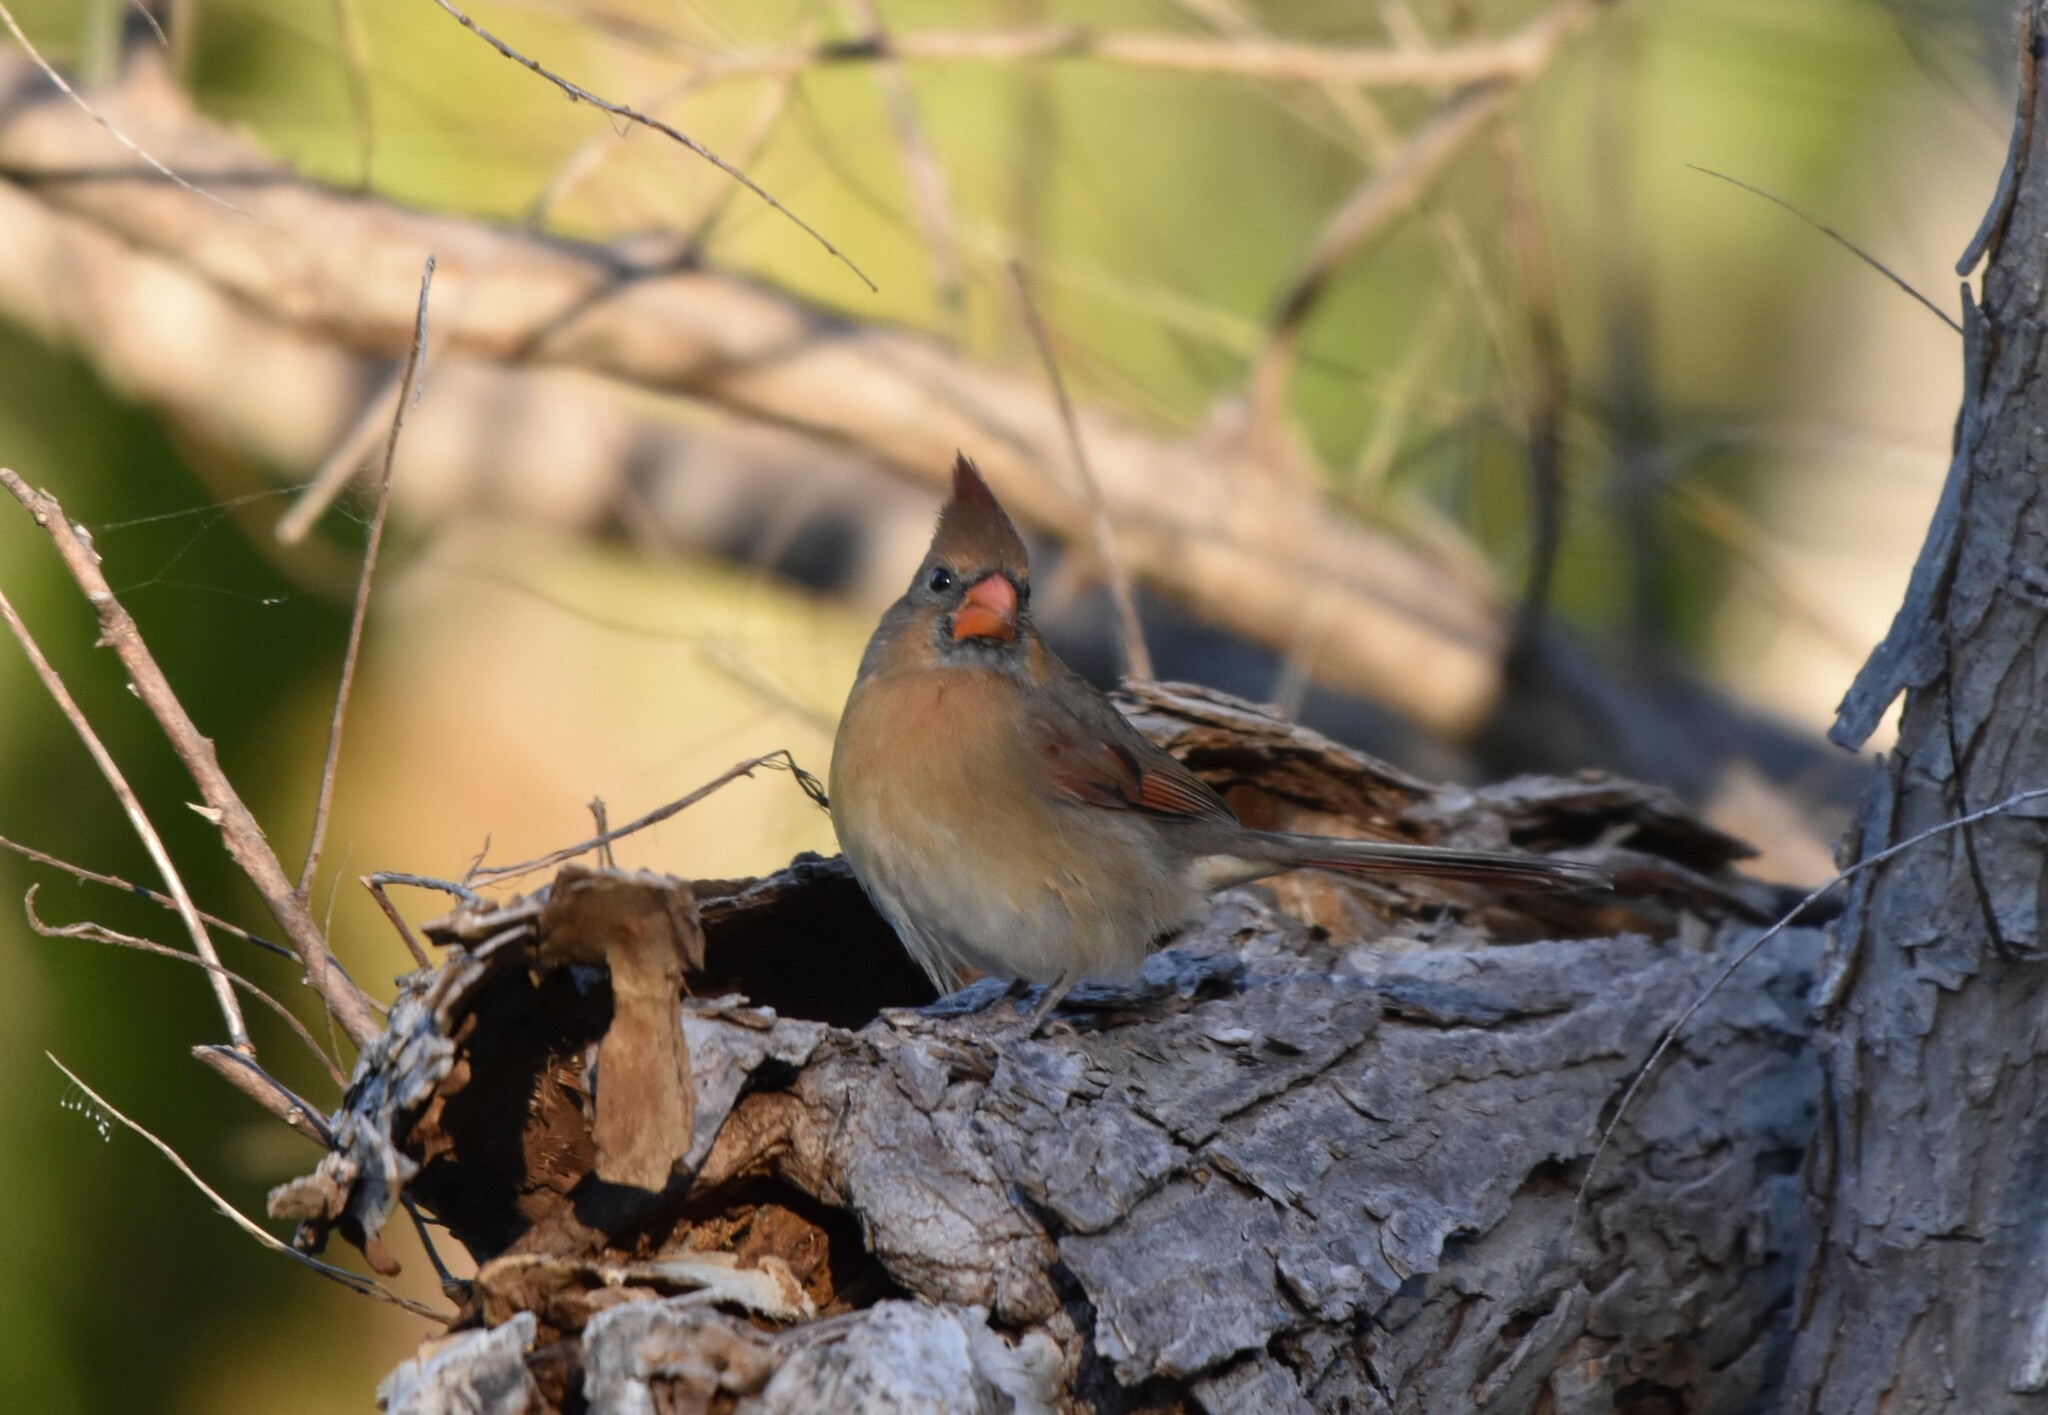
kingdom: Animalia
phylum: Chordata
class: Aves
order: Passeriformes
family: Cardinalidae
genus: Cardinalis
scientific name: Cardinalis cardinalis
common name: Northern cardinal
